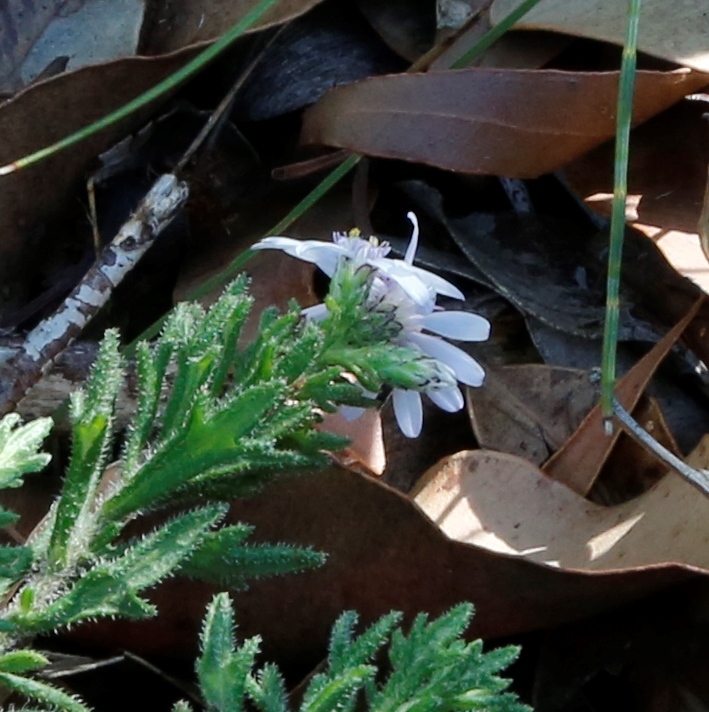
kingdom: Plantae
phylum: Tracheophyta
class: Magnoliopsida
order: Asterales
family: Asteraceae
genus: Olearia
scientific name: Olearia paucidentata
